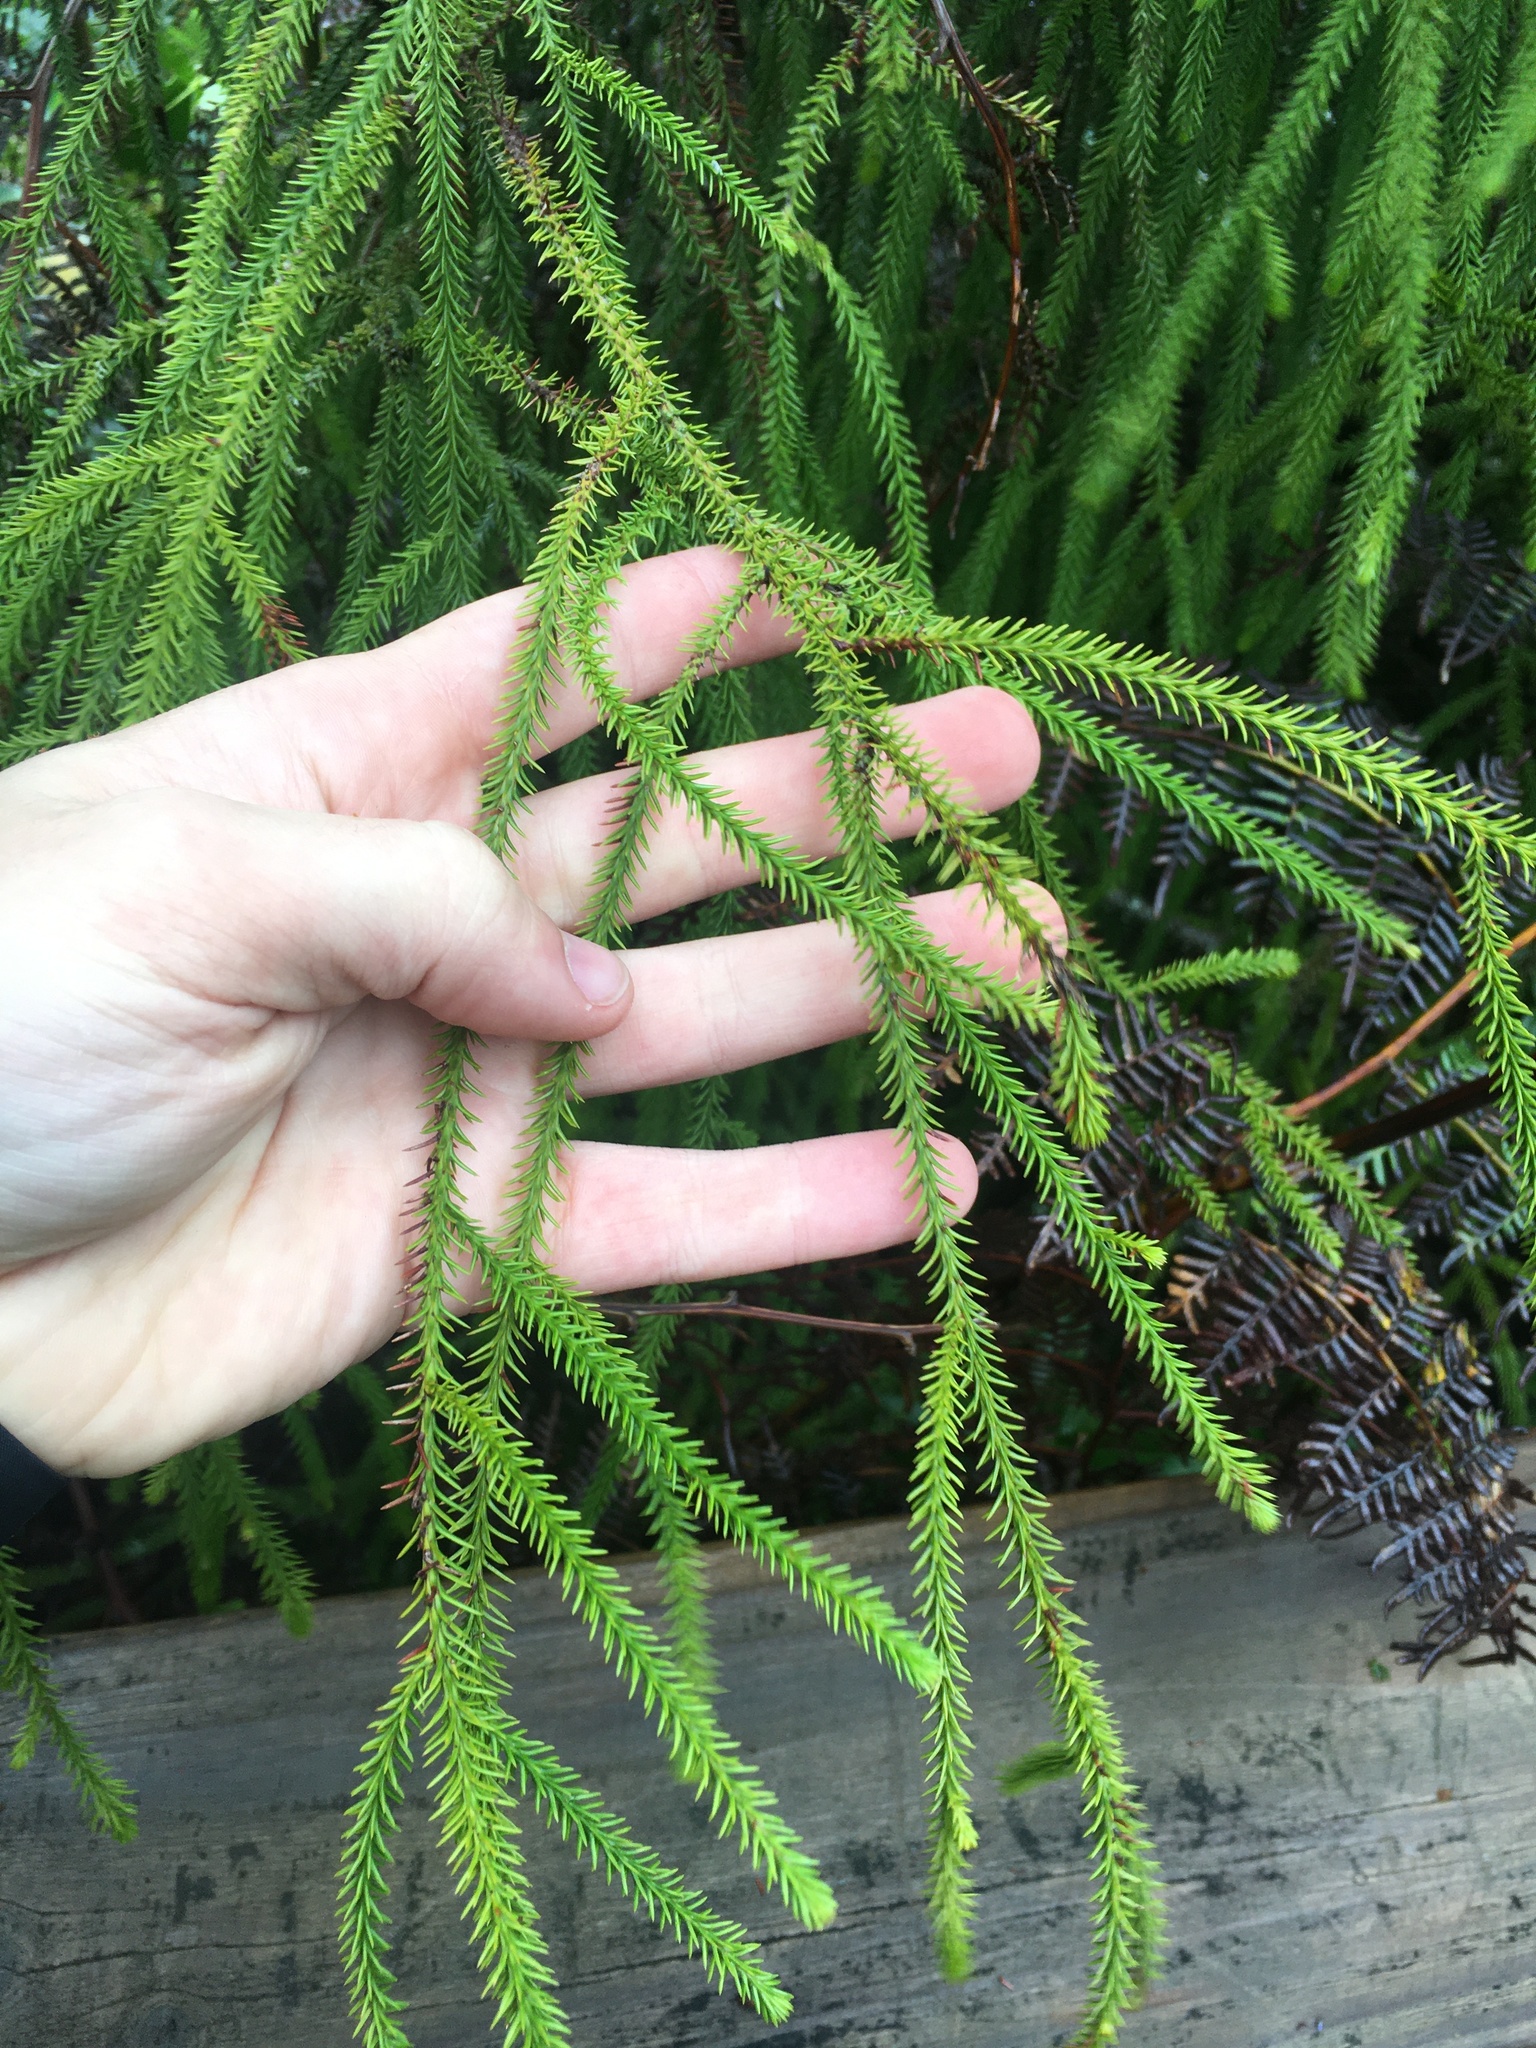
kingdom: Plantae
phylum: Tracheophyta
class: Pinopsida
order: Pinales
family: Podocarpaceae
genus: Dacrydium
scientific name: Dacrydium cupressinum
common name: Red pine
